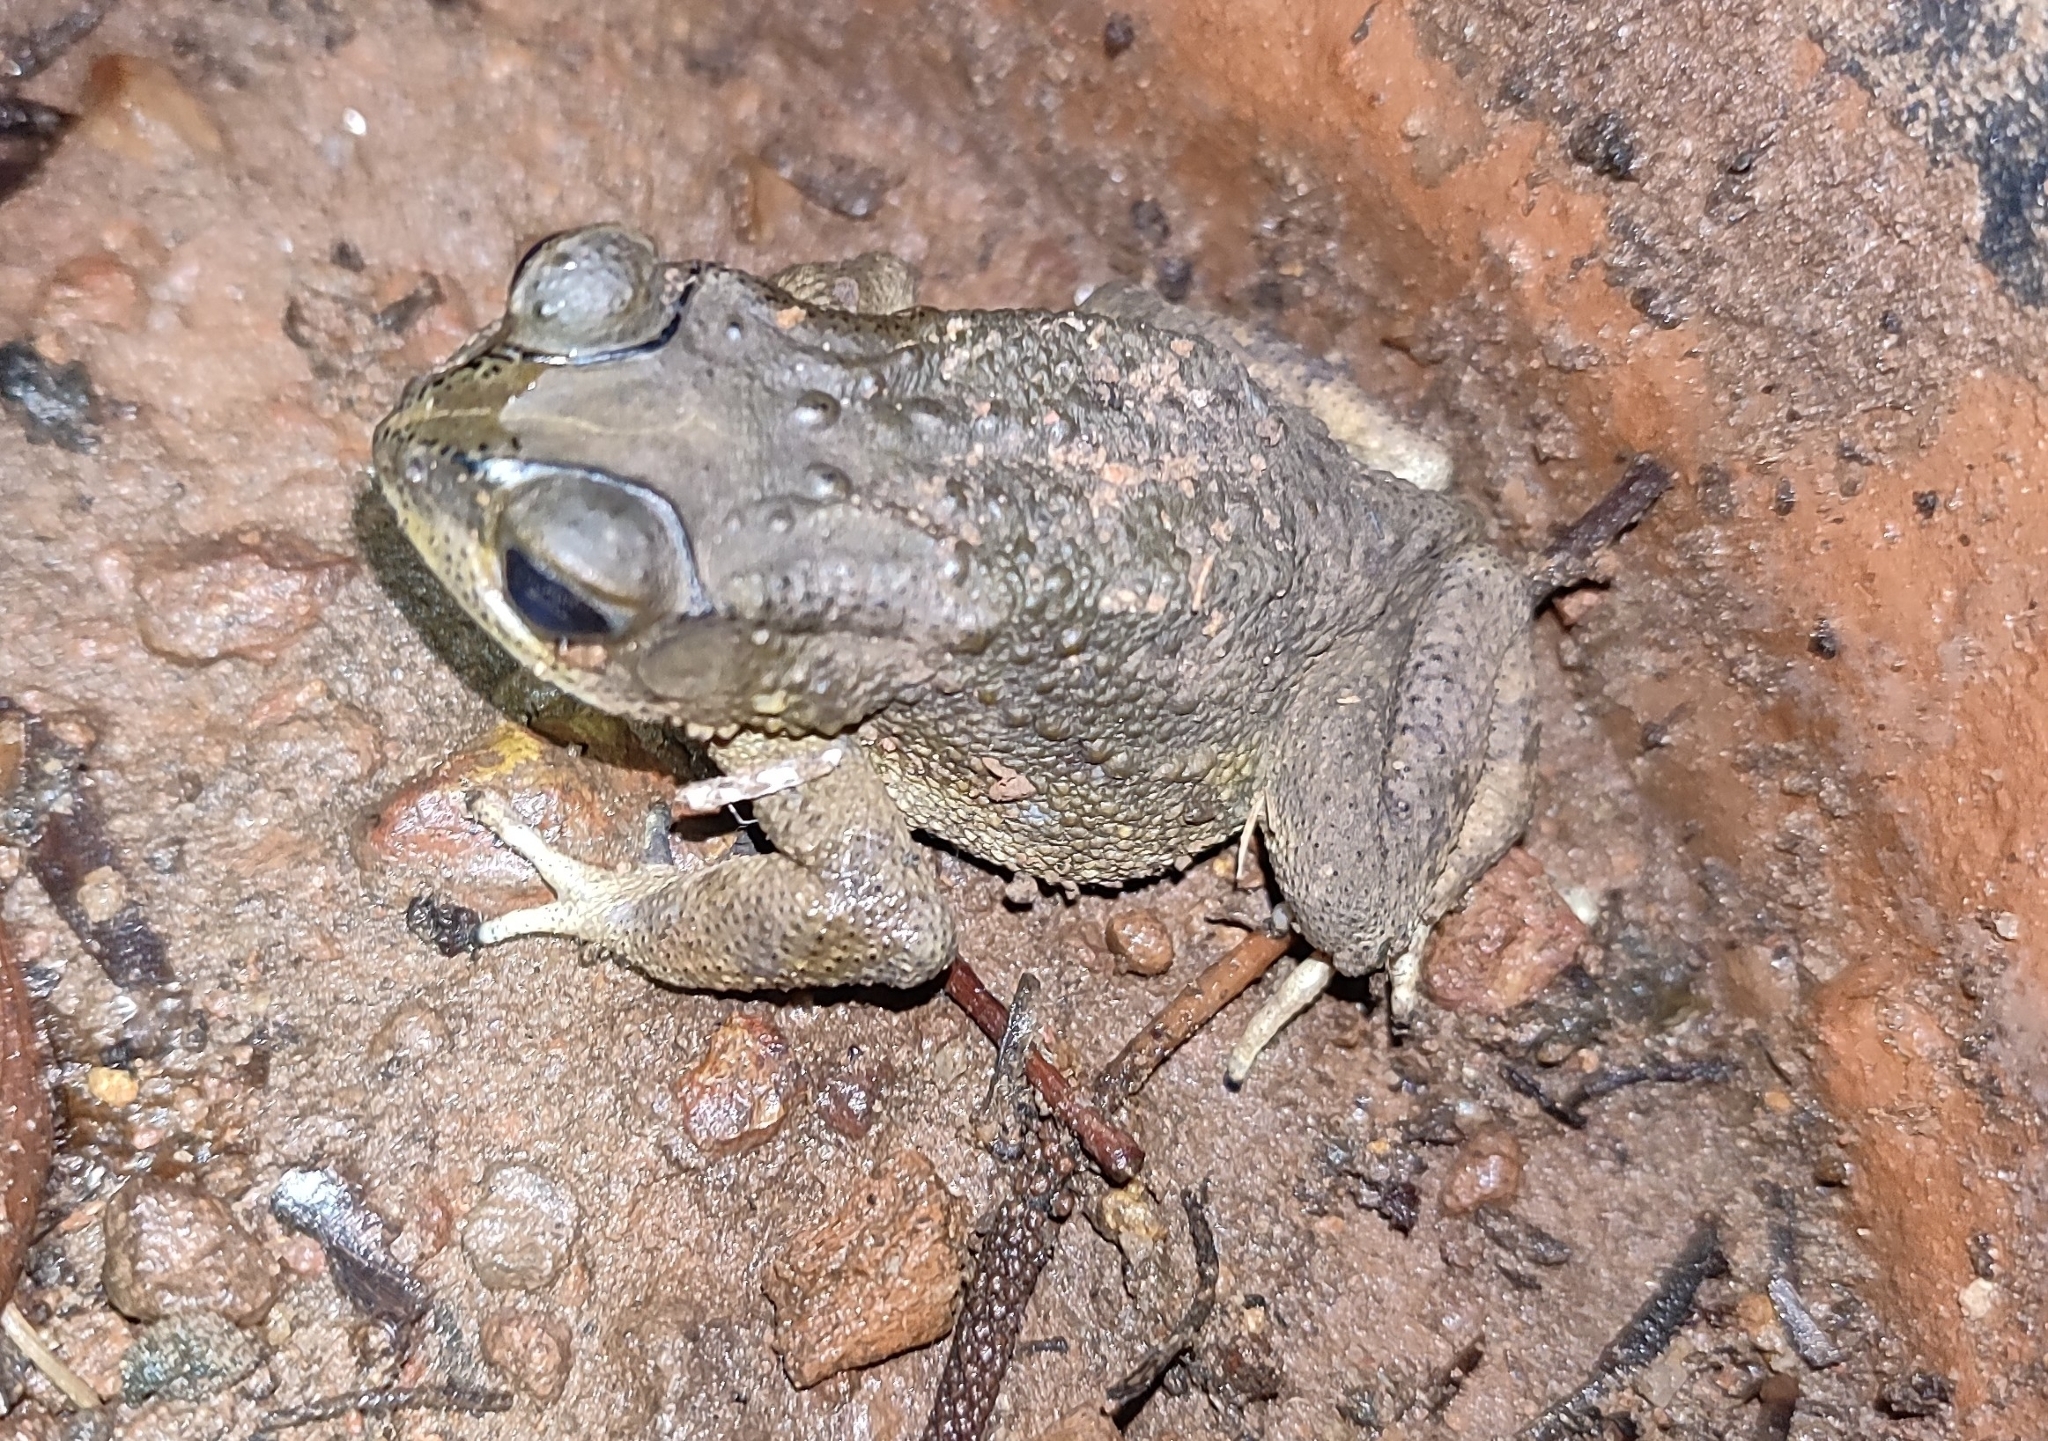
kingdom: Animalia
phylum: Chordata
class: Amphibia
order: Anura
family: Bufonidae
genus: Duttaphrynus
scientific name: Duttaphrynus melanostictus
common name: Common sunda toad
